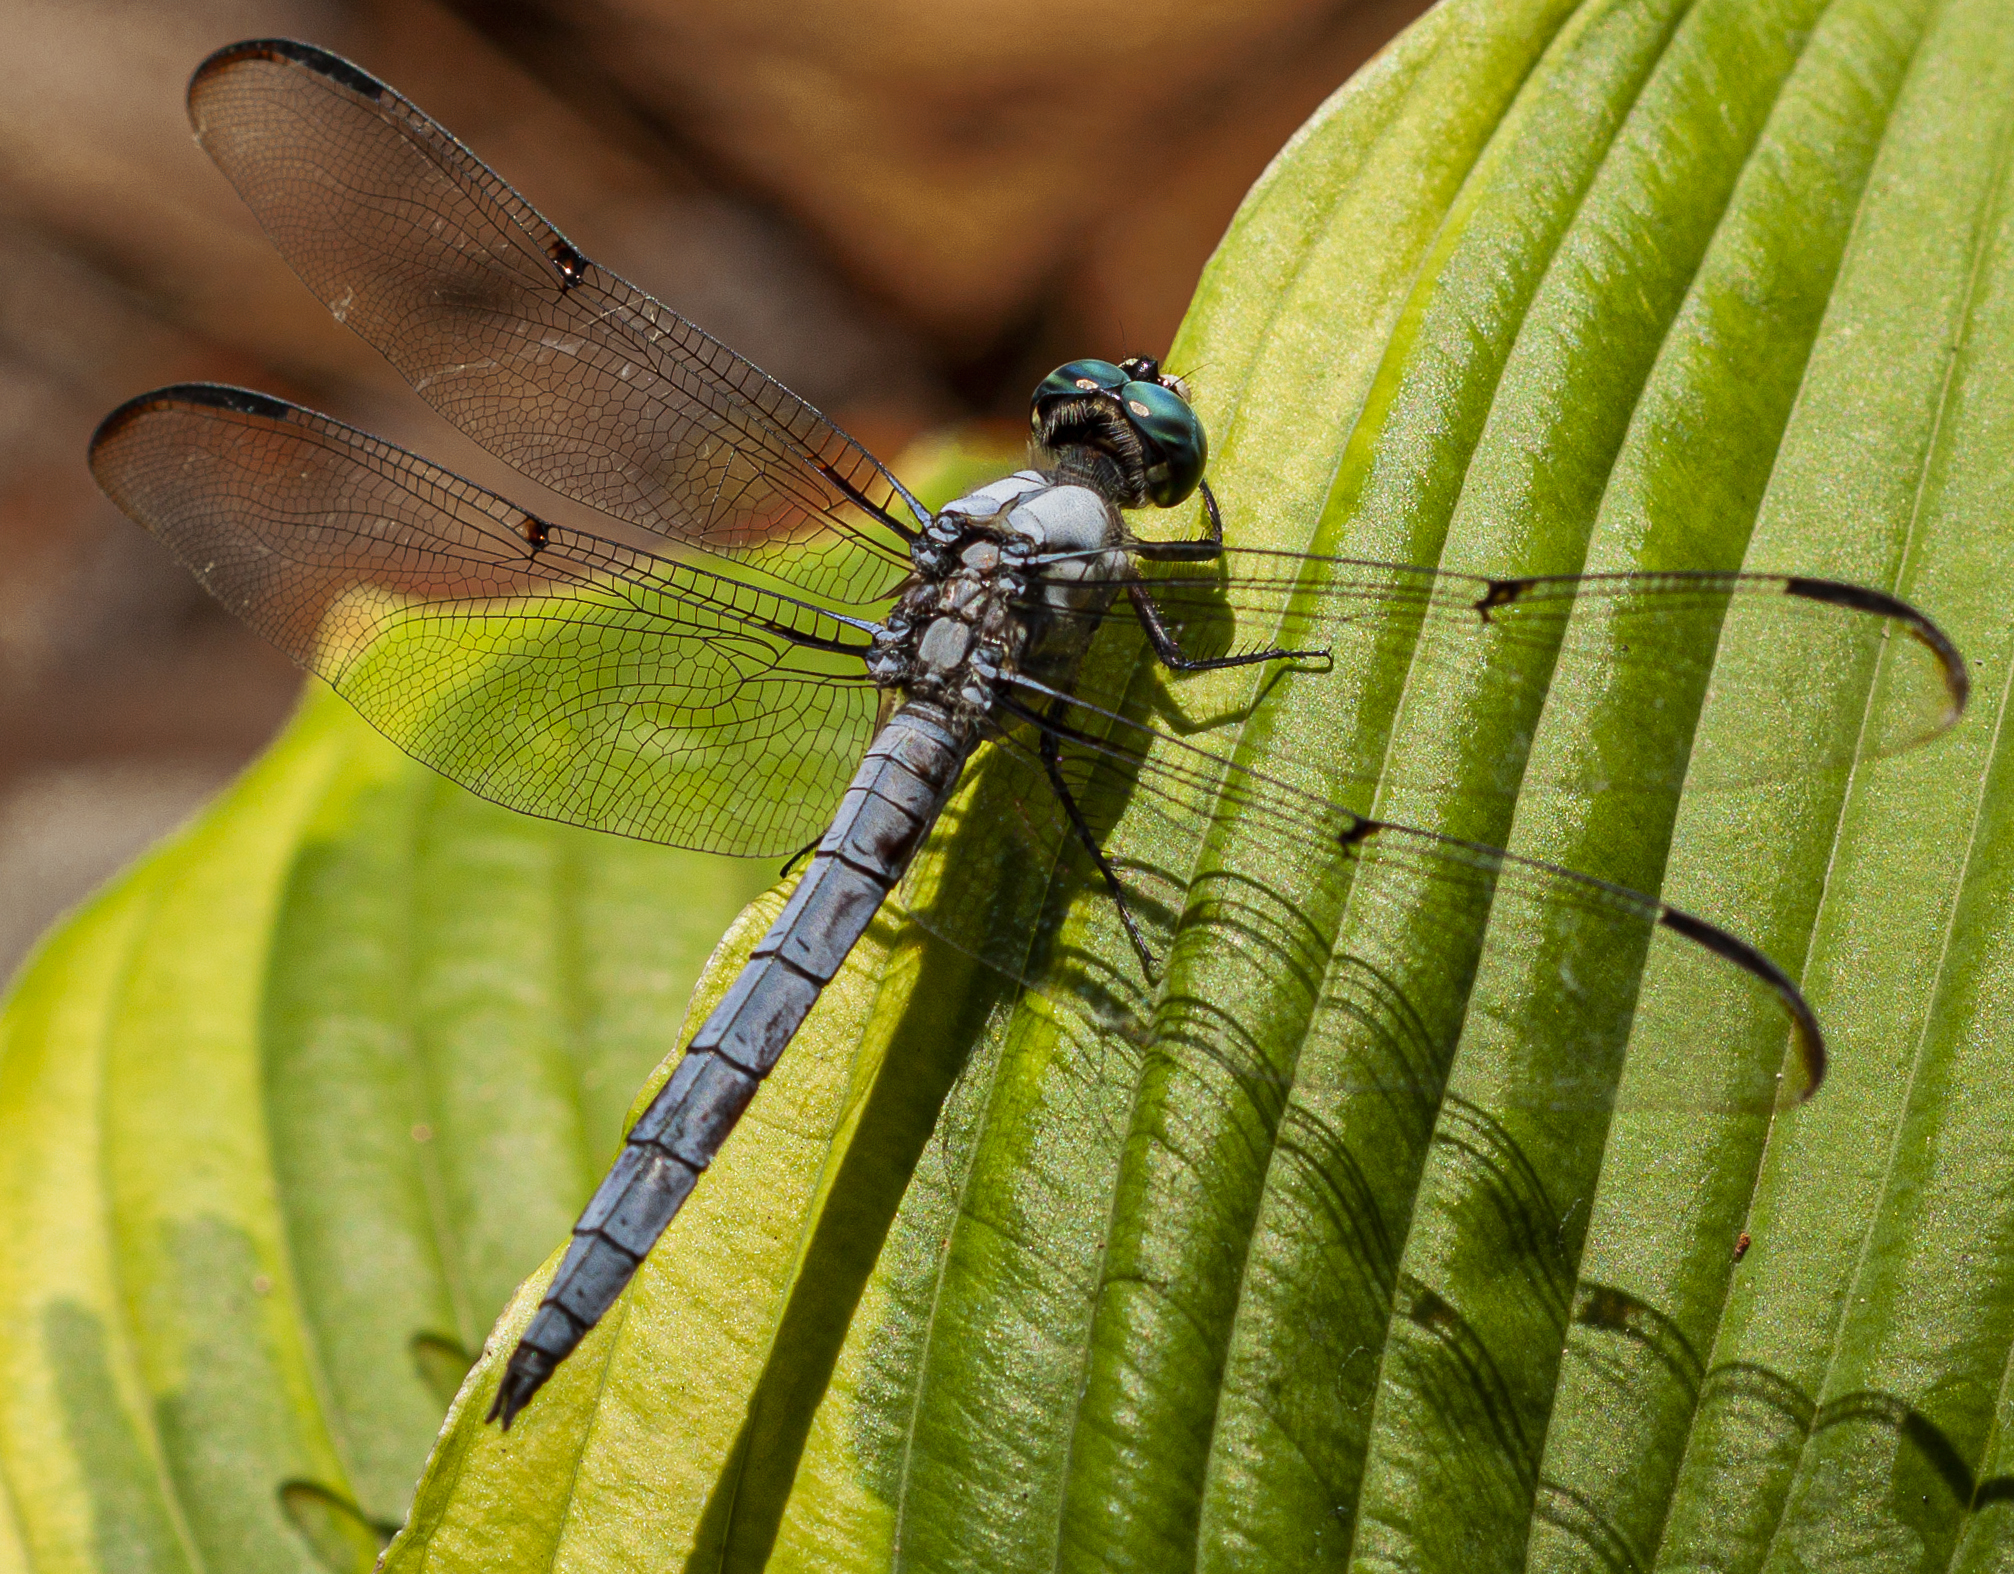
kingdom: Animalia
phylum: Arthropoda
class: Insecta
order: Odonata
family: Libellulidae
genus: Libellula
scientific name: Libellula vibrans
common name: Great blue skimmer
